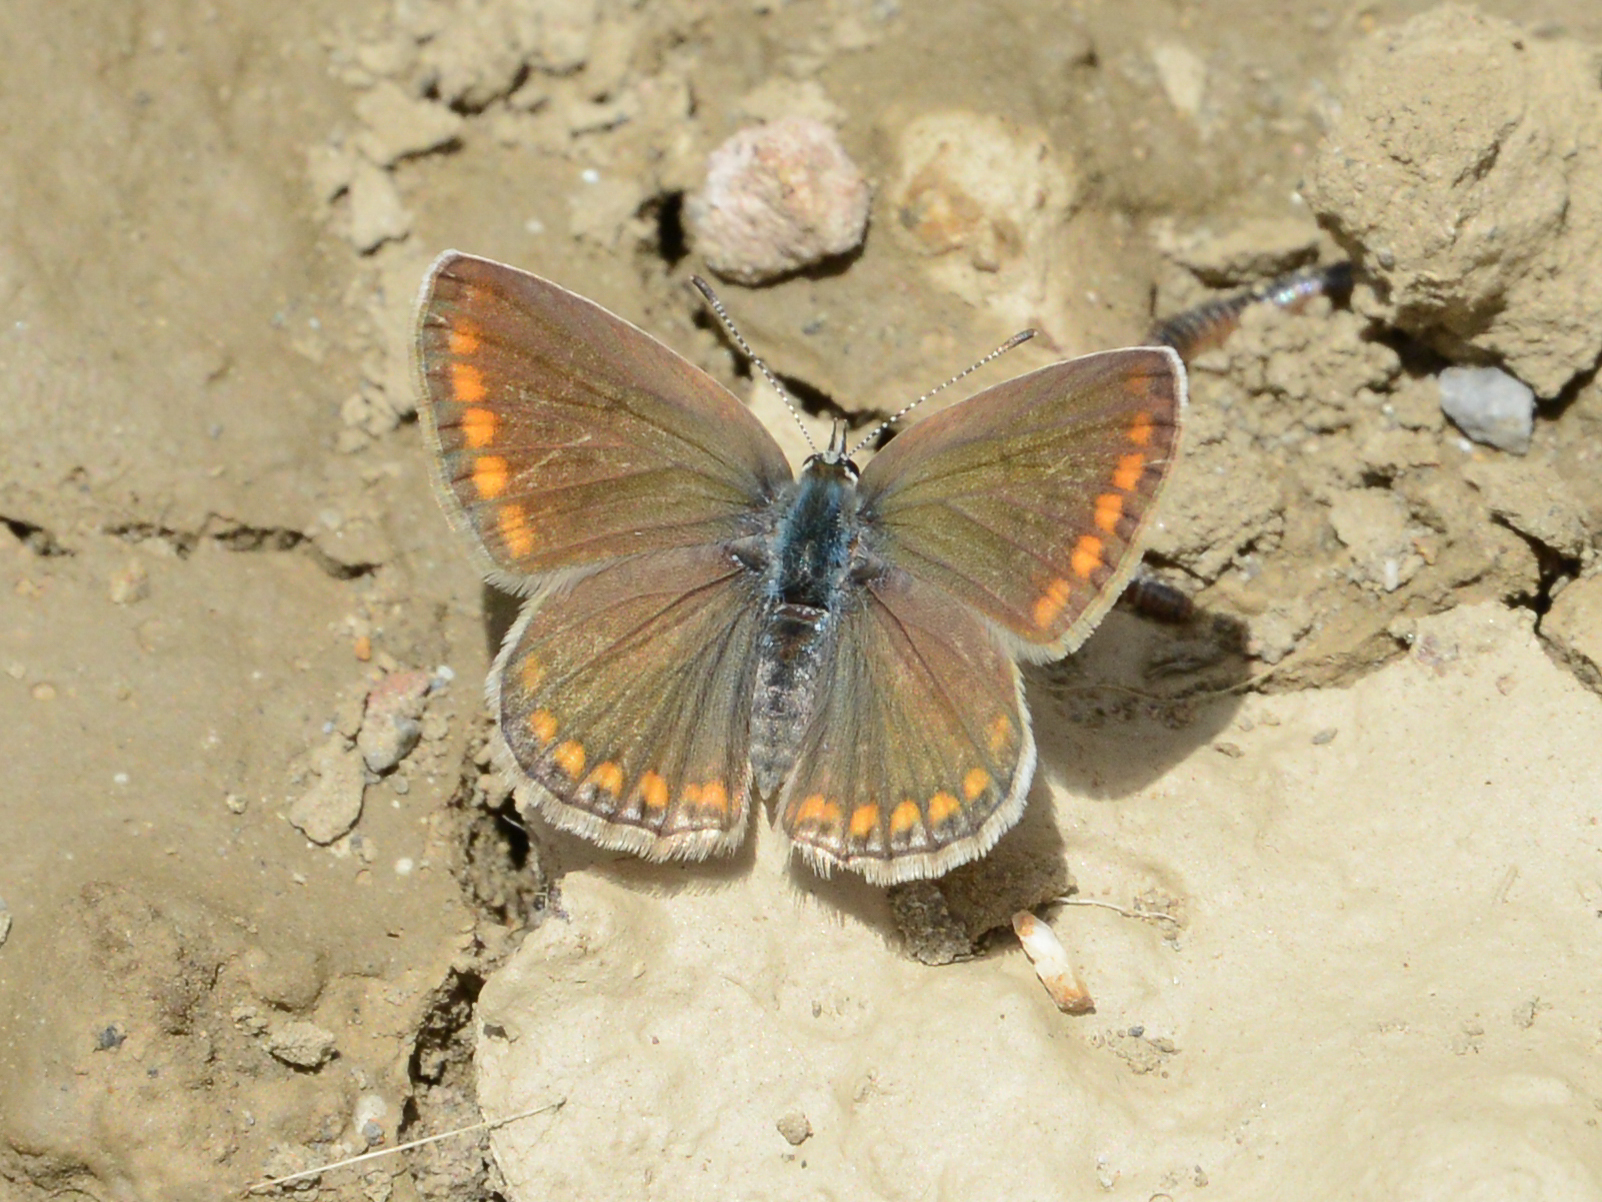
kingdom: Animalia
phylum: Arthropoda
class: Insecta
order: Lepidoptera
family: Lycaenidae
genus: Polyommatus
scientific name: Polyommatus icarus
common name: Common blue
